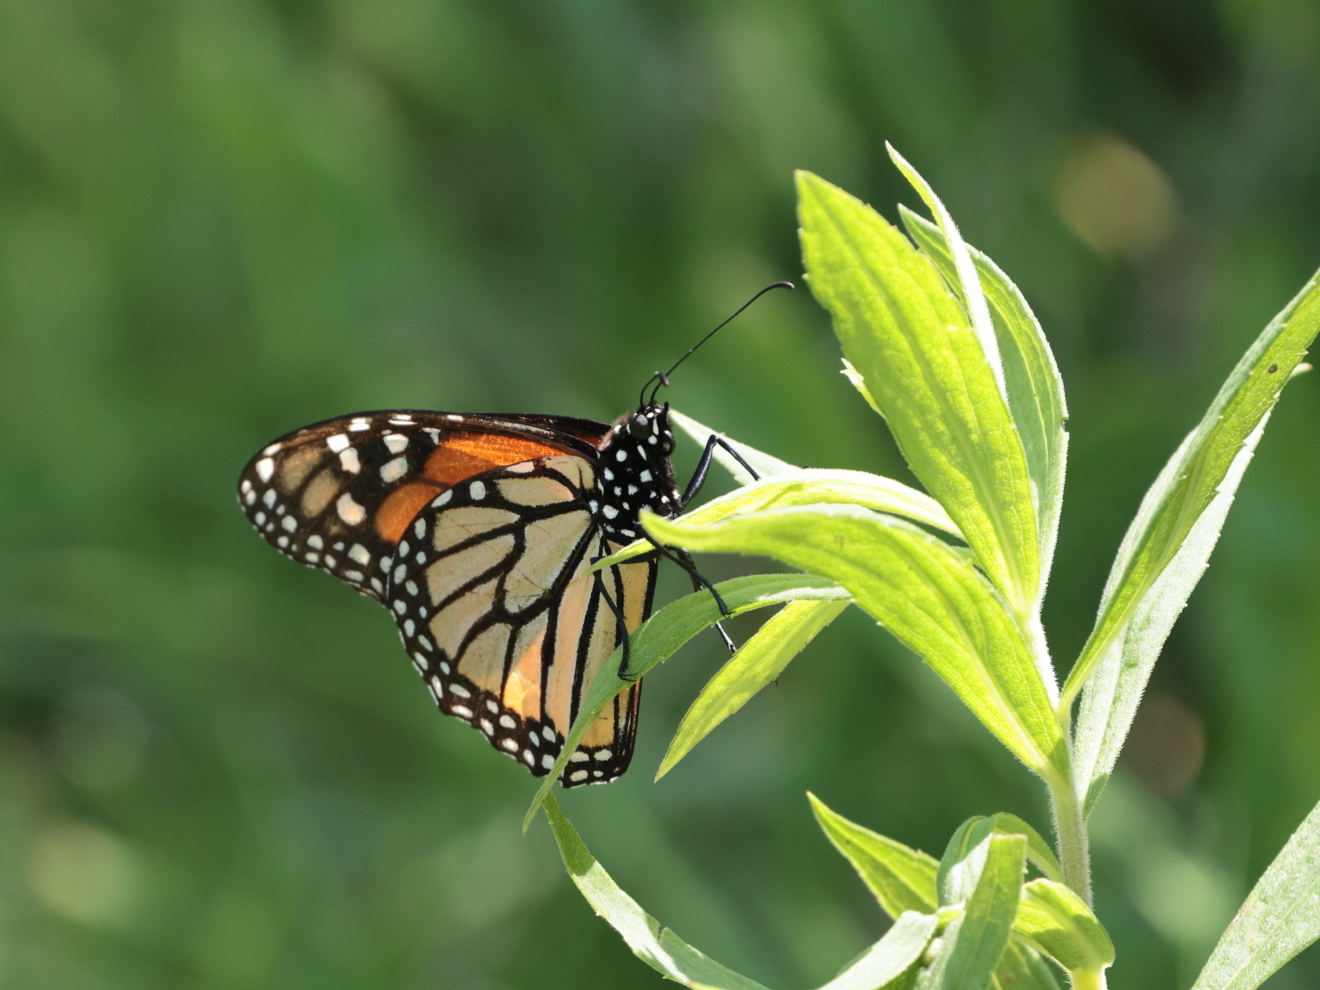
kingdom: Animalia
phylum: Arthropoda
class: Insecta
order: Lepidoptera
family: Nymphalidae
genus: Danaus
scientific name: Danaus plexippus
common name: Monarch
